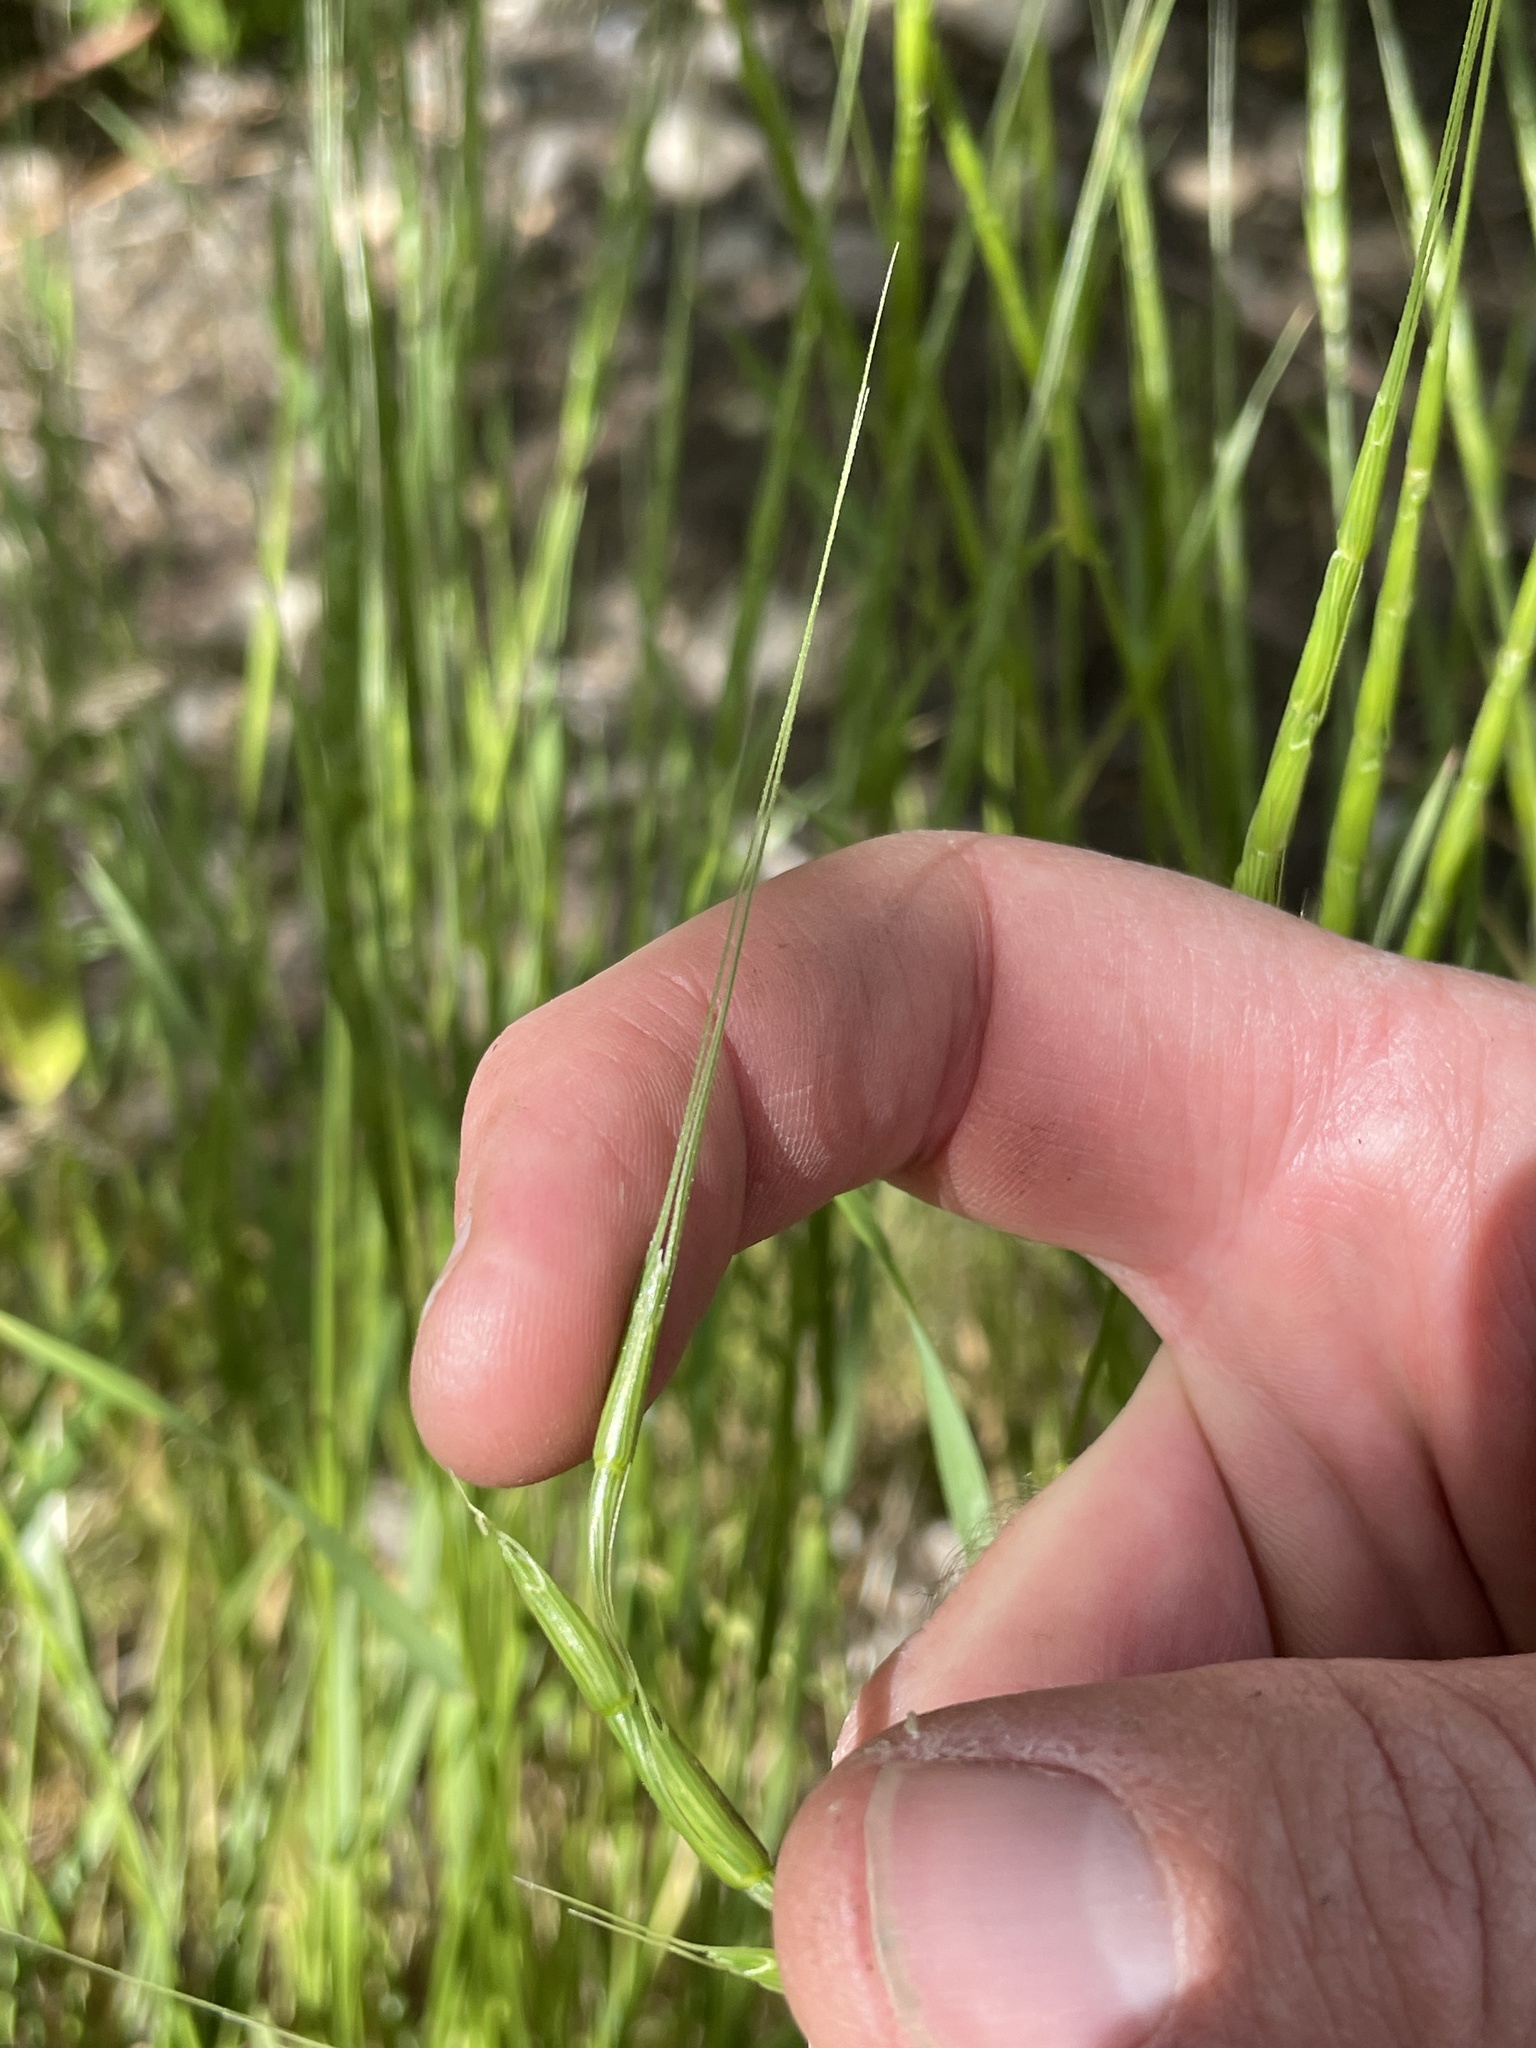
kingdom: Plantae
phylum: Tracheophyta
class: Liliopsida
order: Poales
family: Poaceae
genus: Aegilops
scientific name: Aegilops cylindrica
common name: Jointed goatgrass
